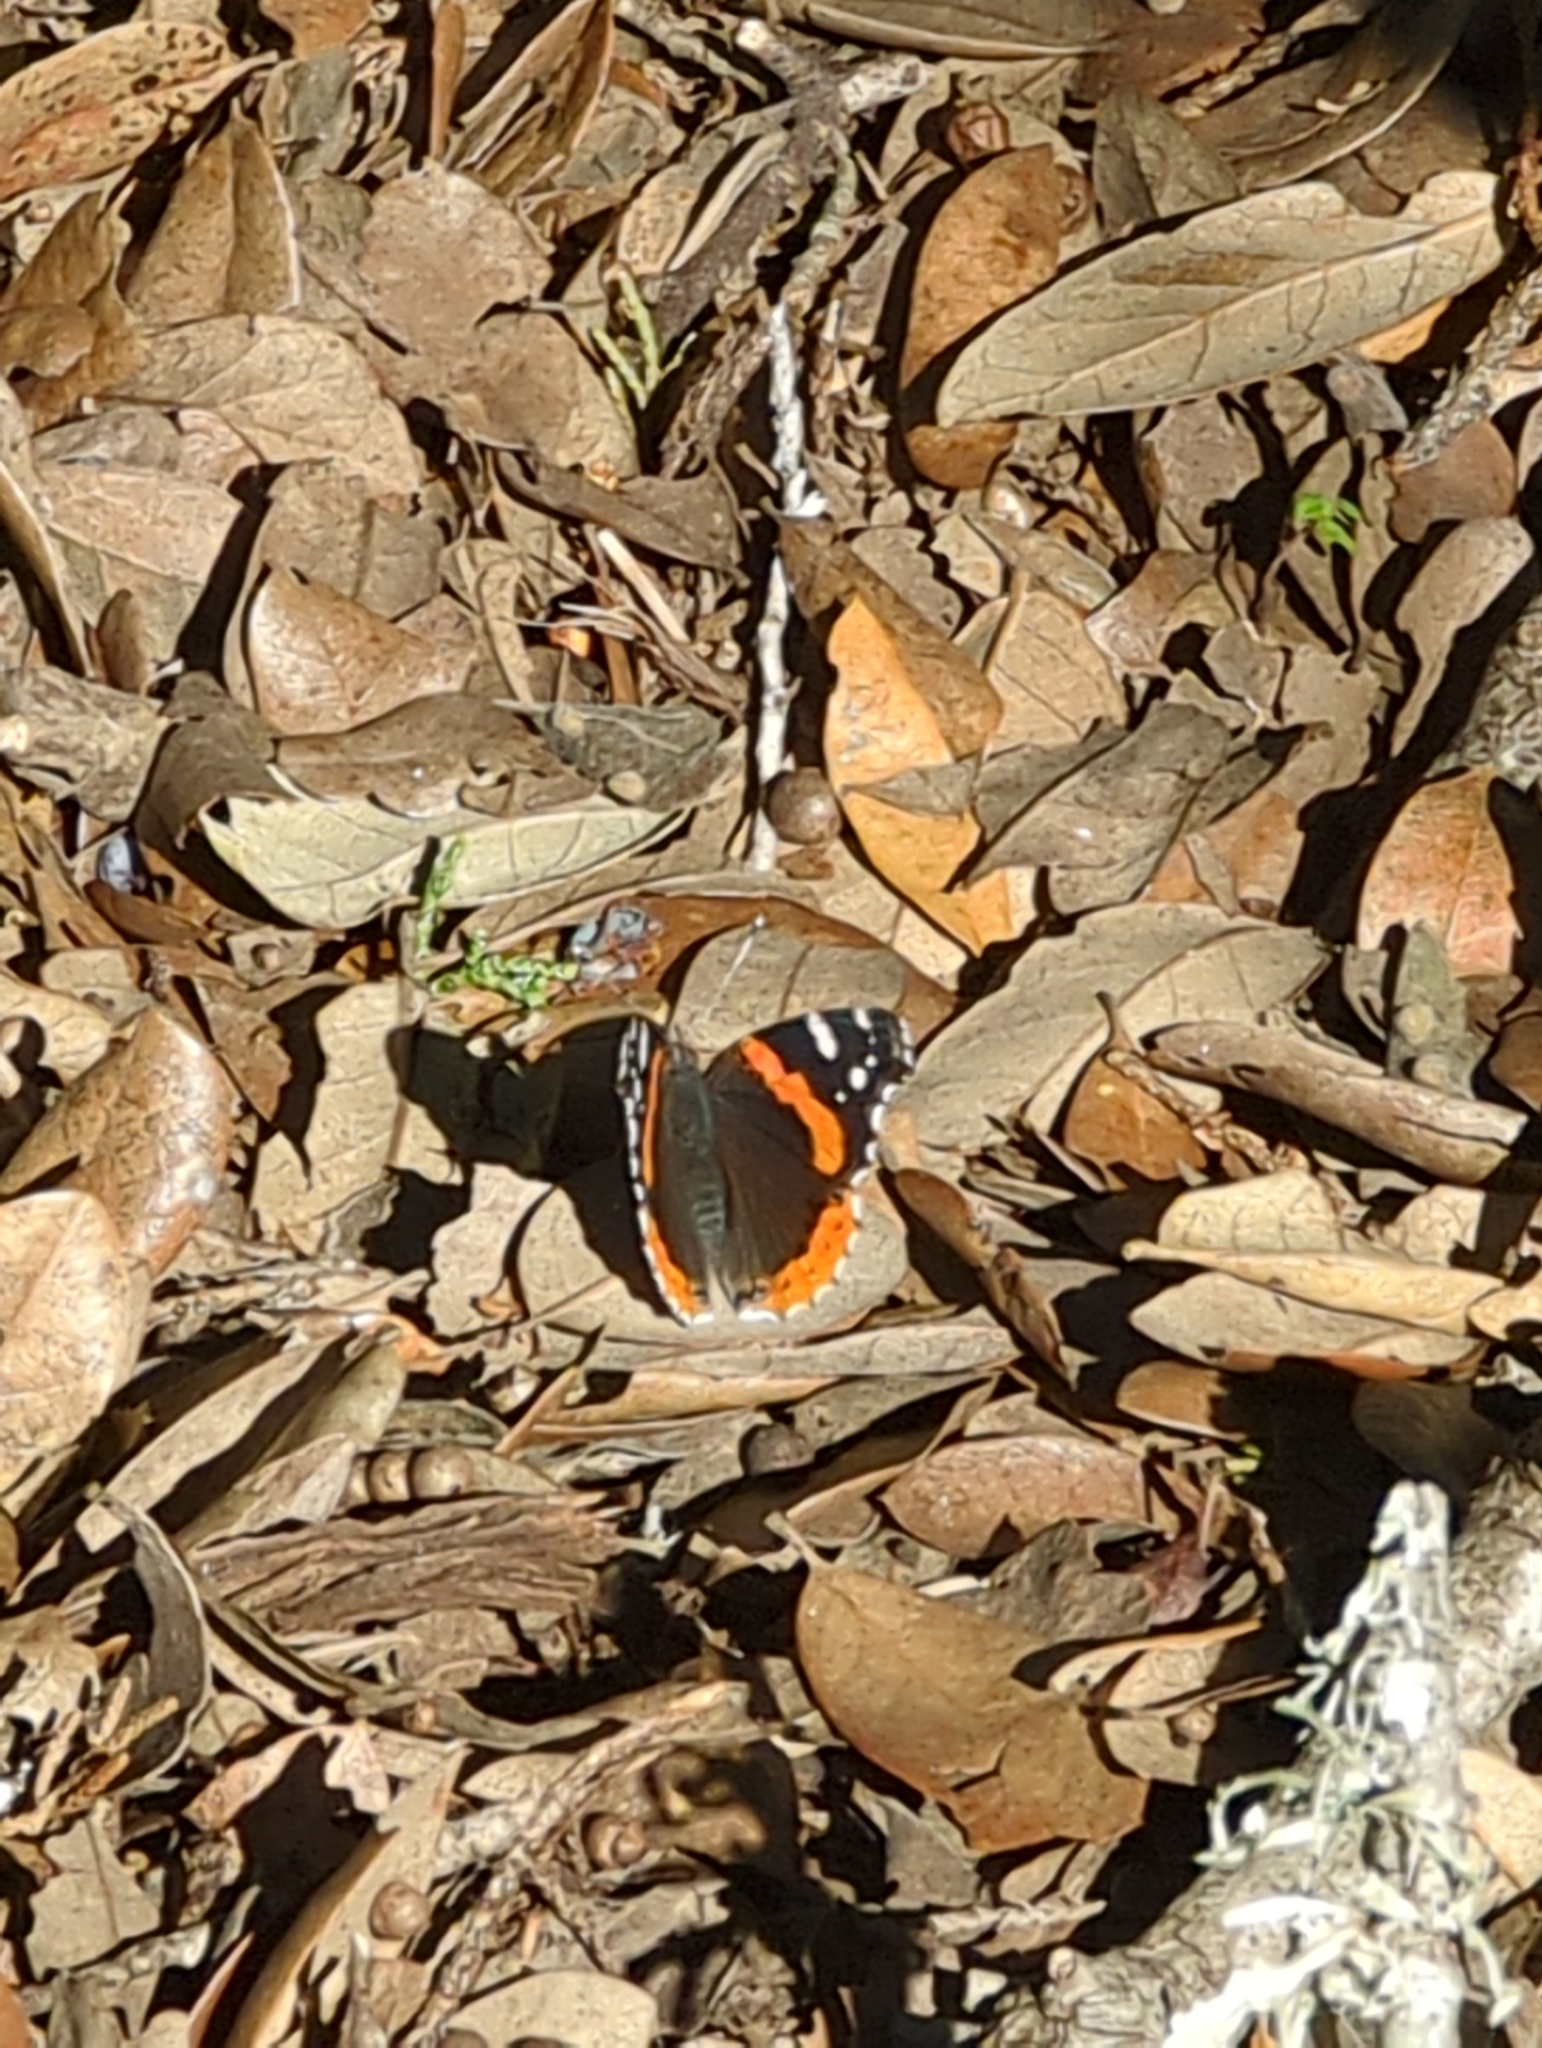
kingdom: Animalia
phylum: Arthropoda
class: Insecta
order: Lepidoptera
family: Nymphalidae
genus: Vanessa
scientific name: Vanessa atalanta
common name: Red admiral
